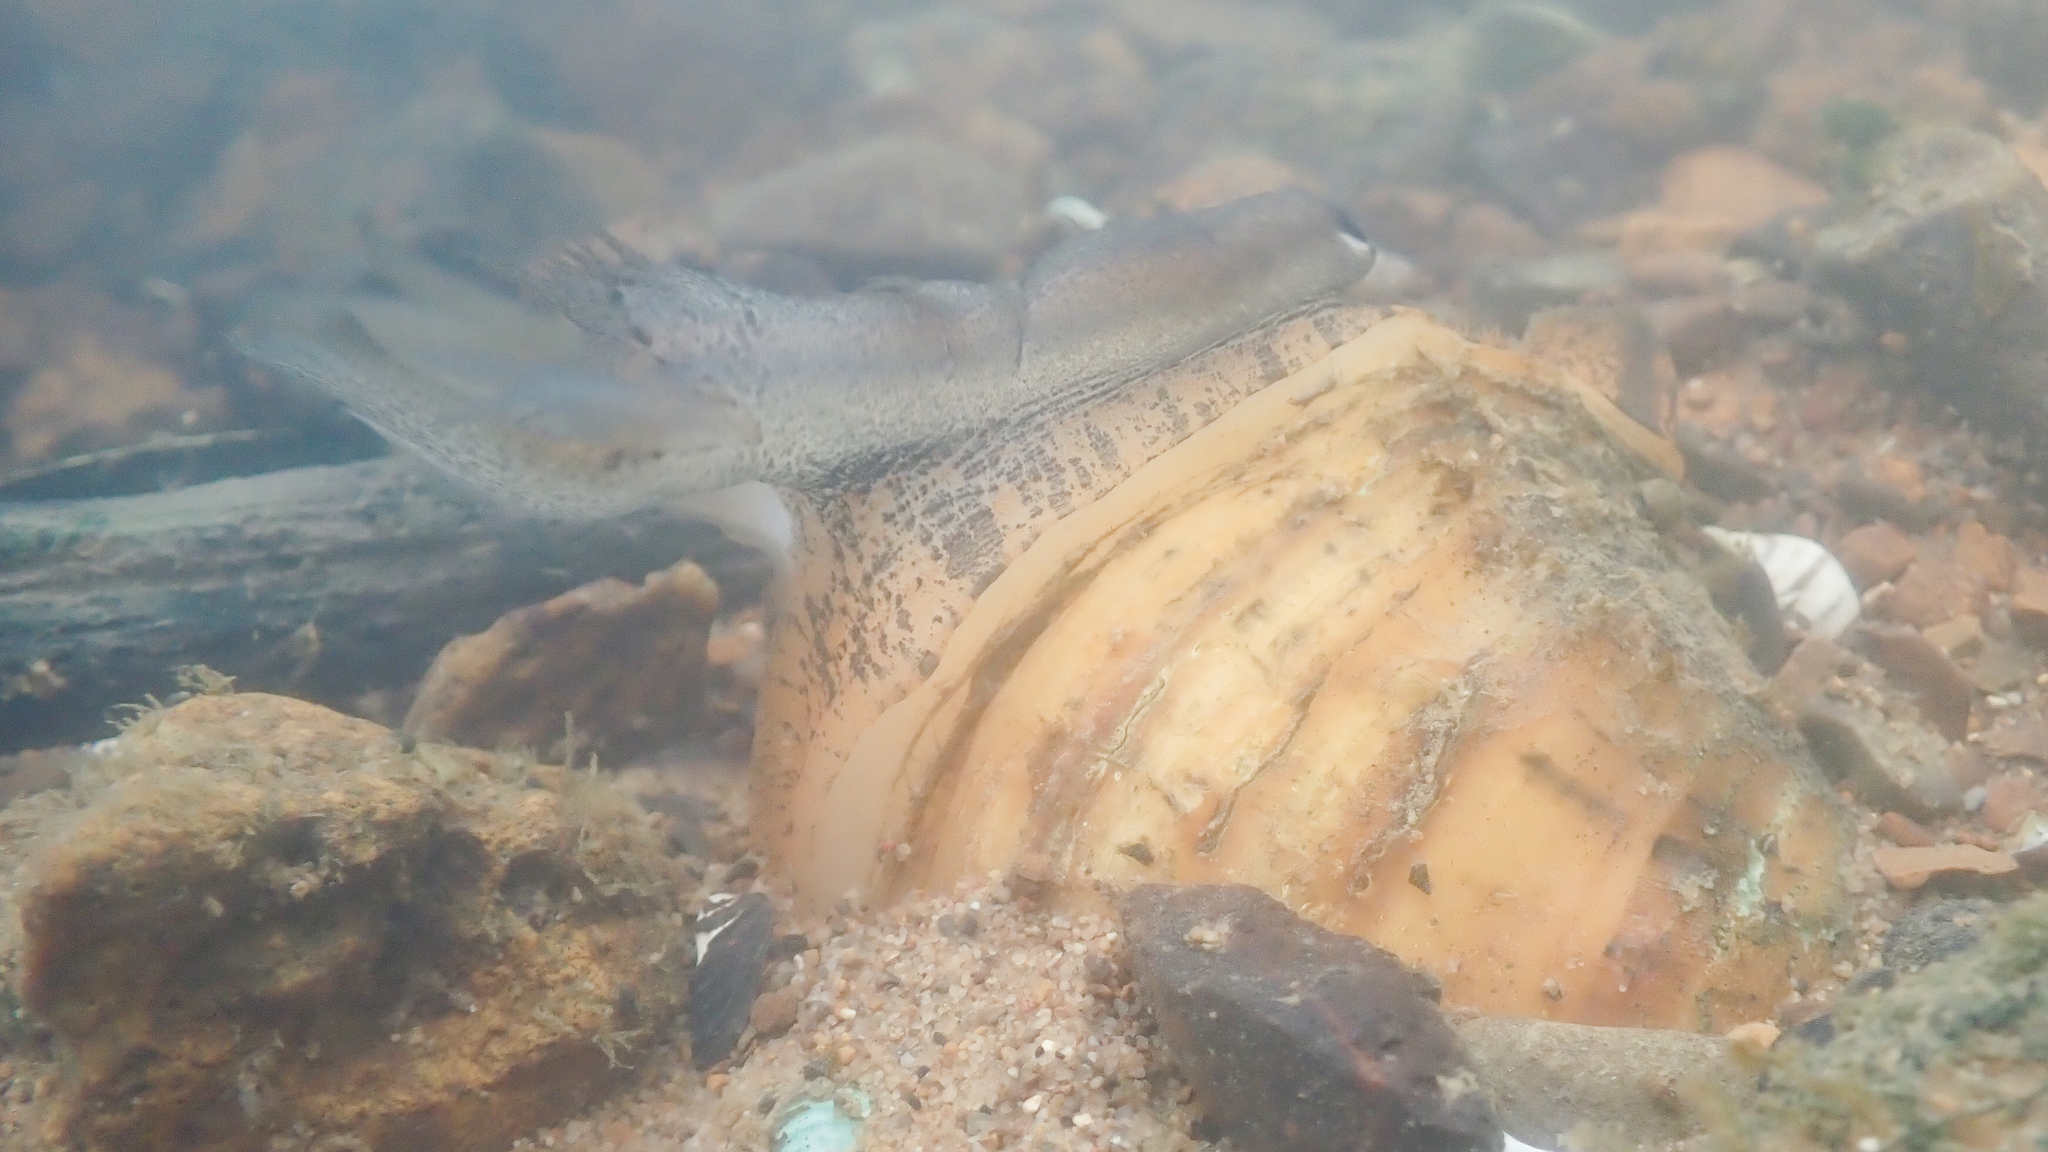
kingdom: Animalia
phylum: Mollusca
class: Bivalvia
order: Unionida
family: Unionidae
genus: Lampsilis
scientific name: Lampsilis ornata
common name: Southern pocketbook
